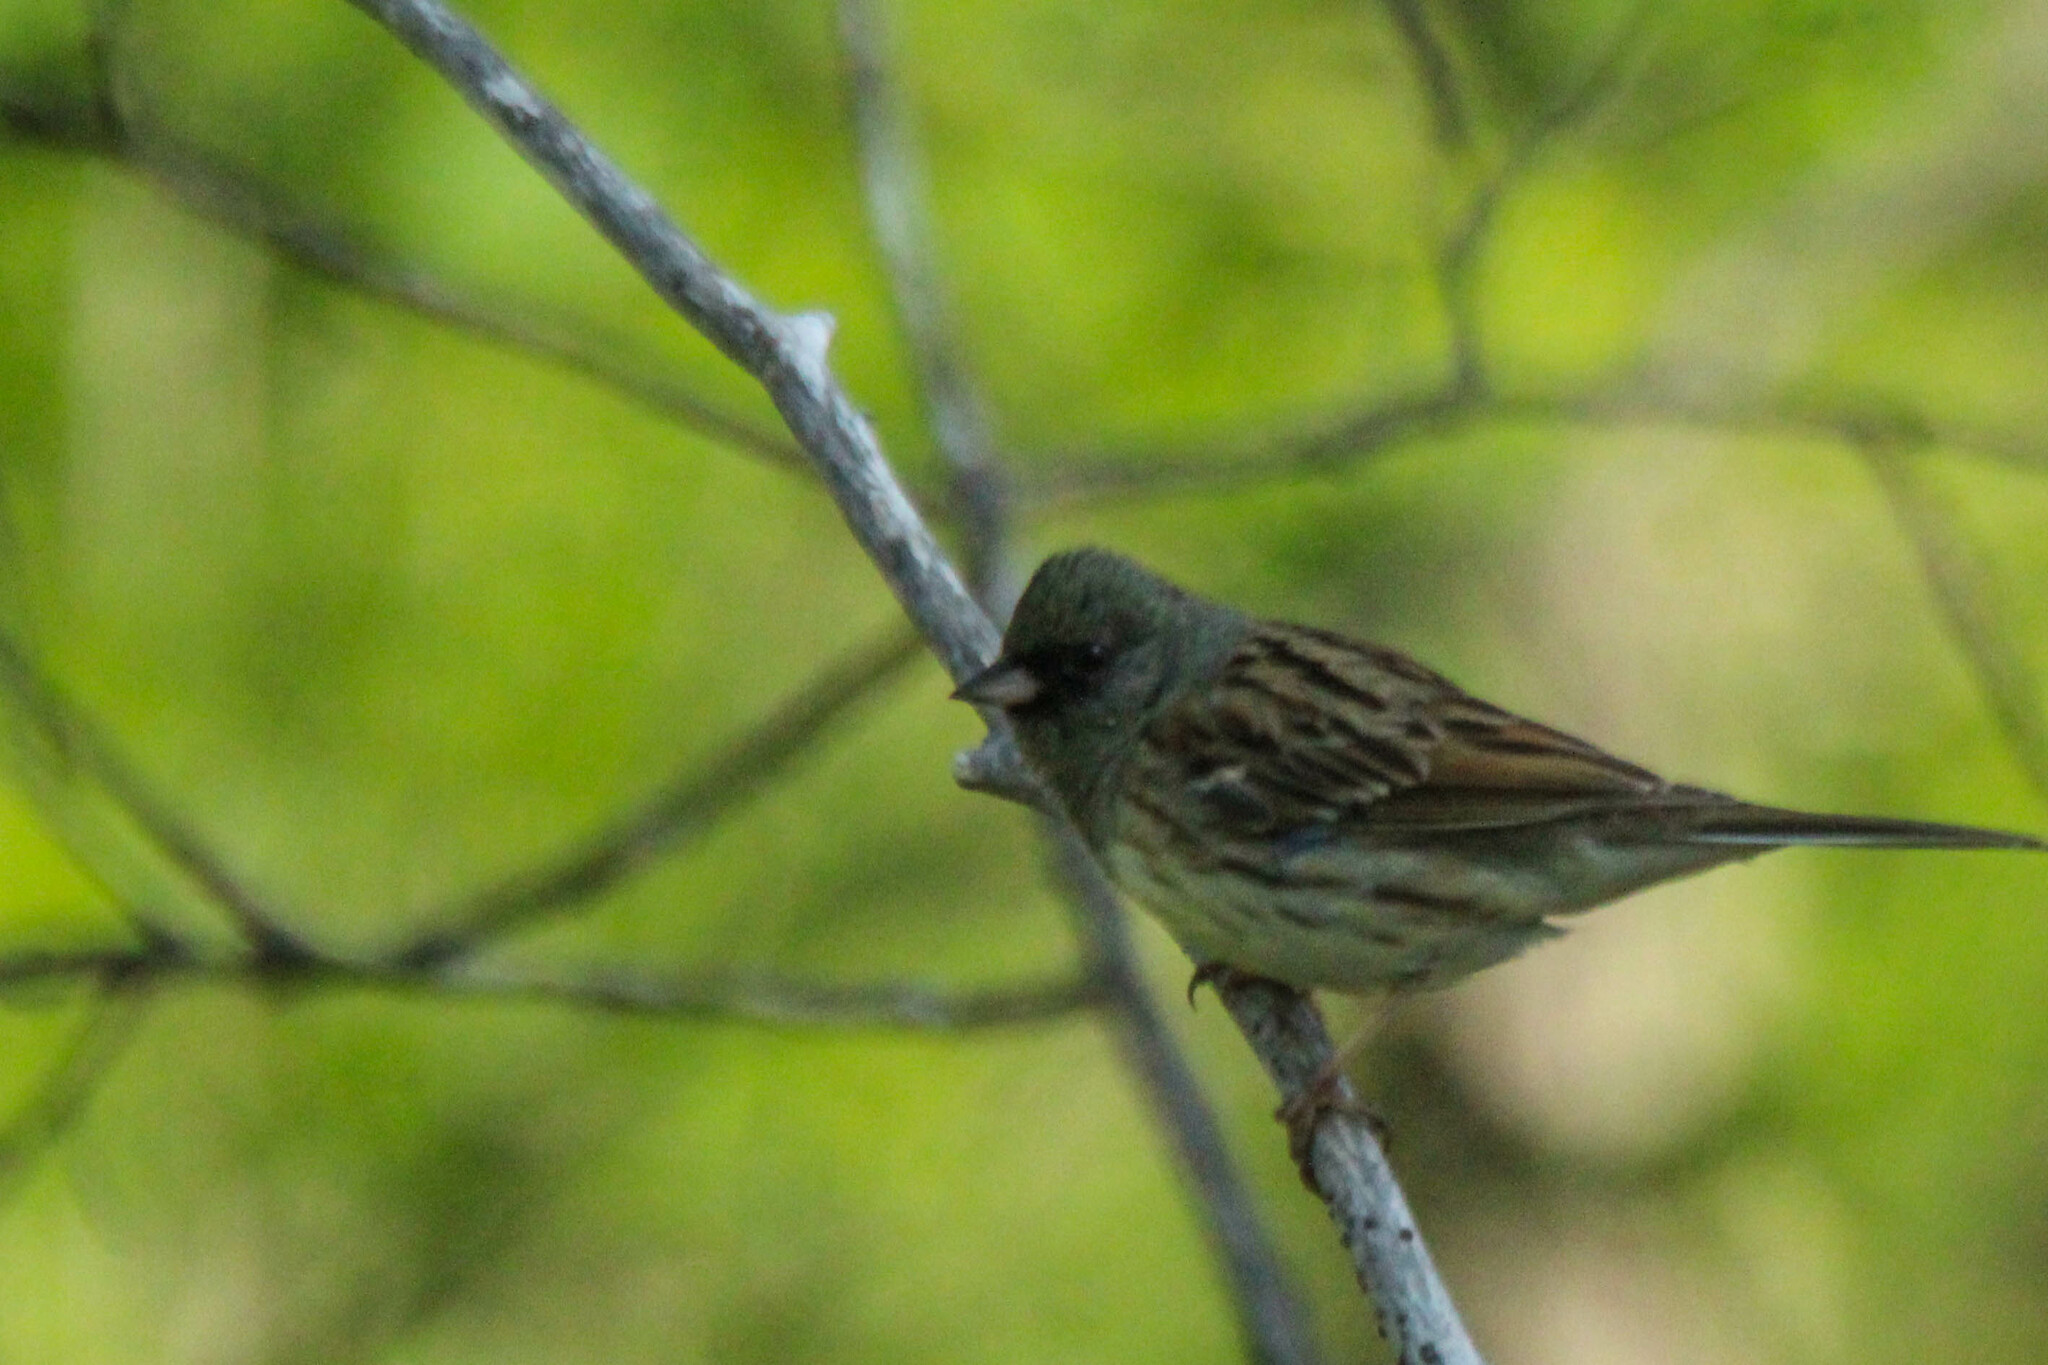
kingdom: Animalia
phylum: Chordata
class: Aves
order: Passeriformes
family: Emberizidae
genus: Emberiza
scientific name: Emberiza spodocephala
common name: Black-faced bunting
